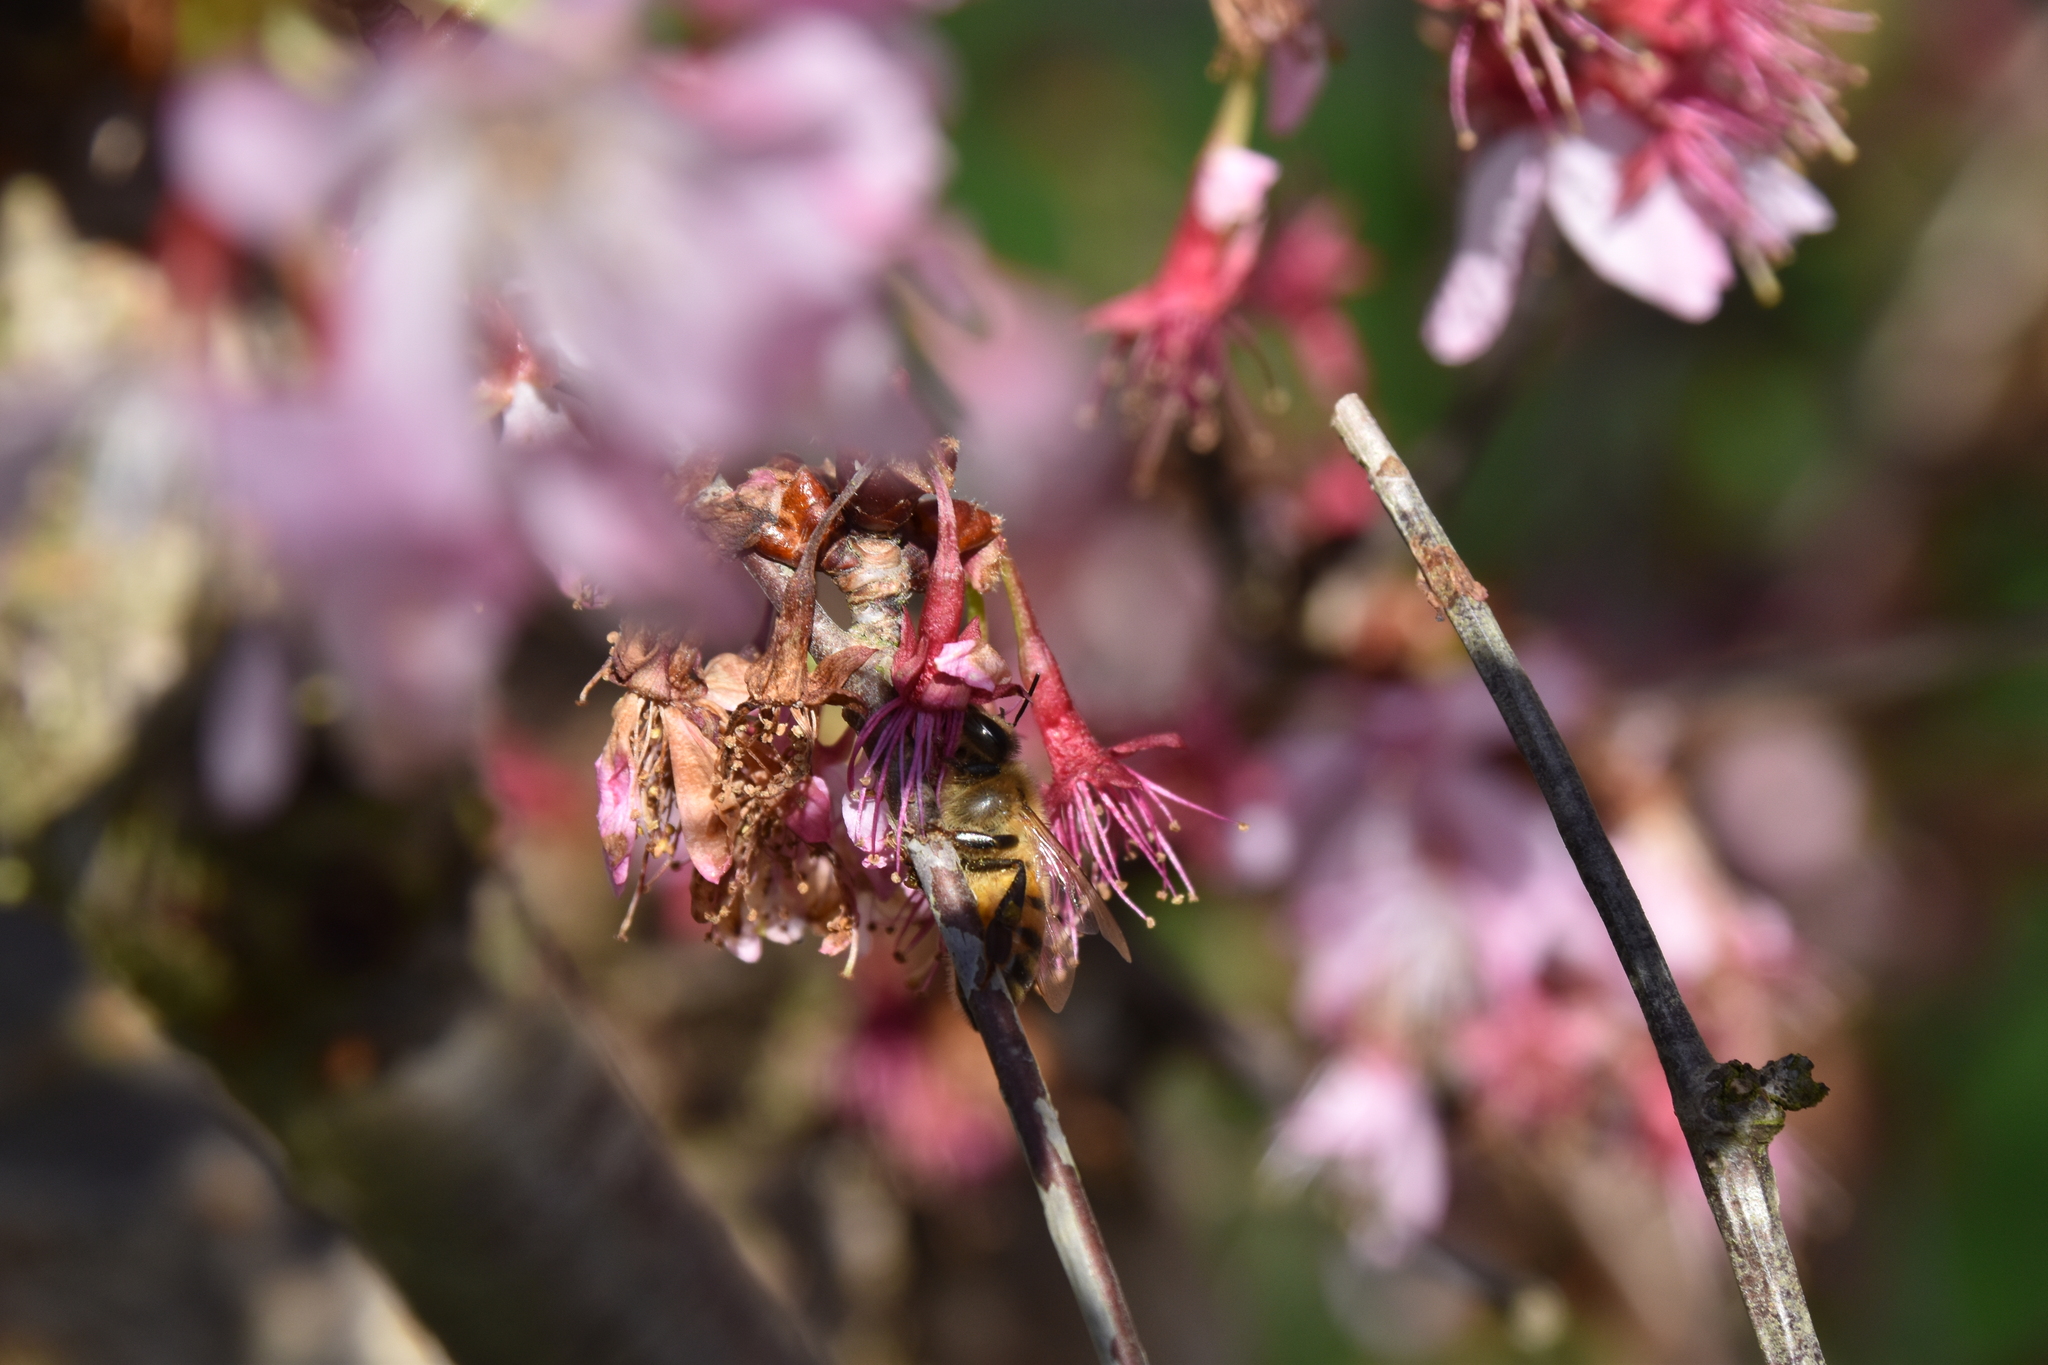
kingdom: Animalia
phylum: Arthropoda
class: Insecta
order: Hymenoptera
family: Apidae
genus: Apis
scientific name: Apis mellifera
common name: Honey bee
